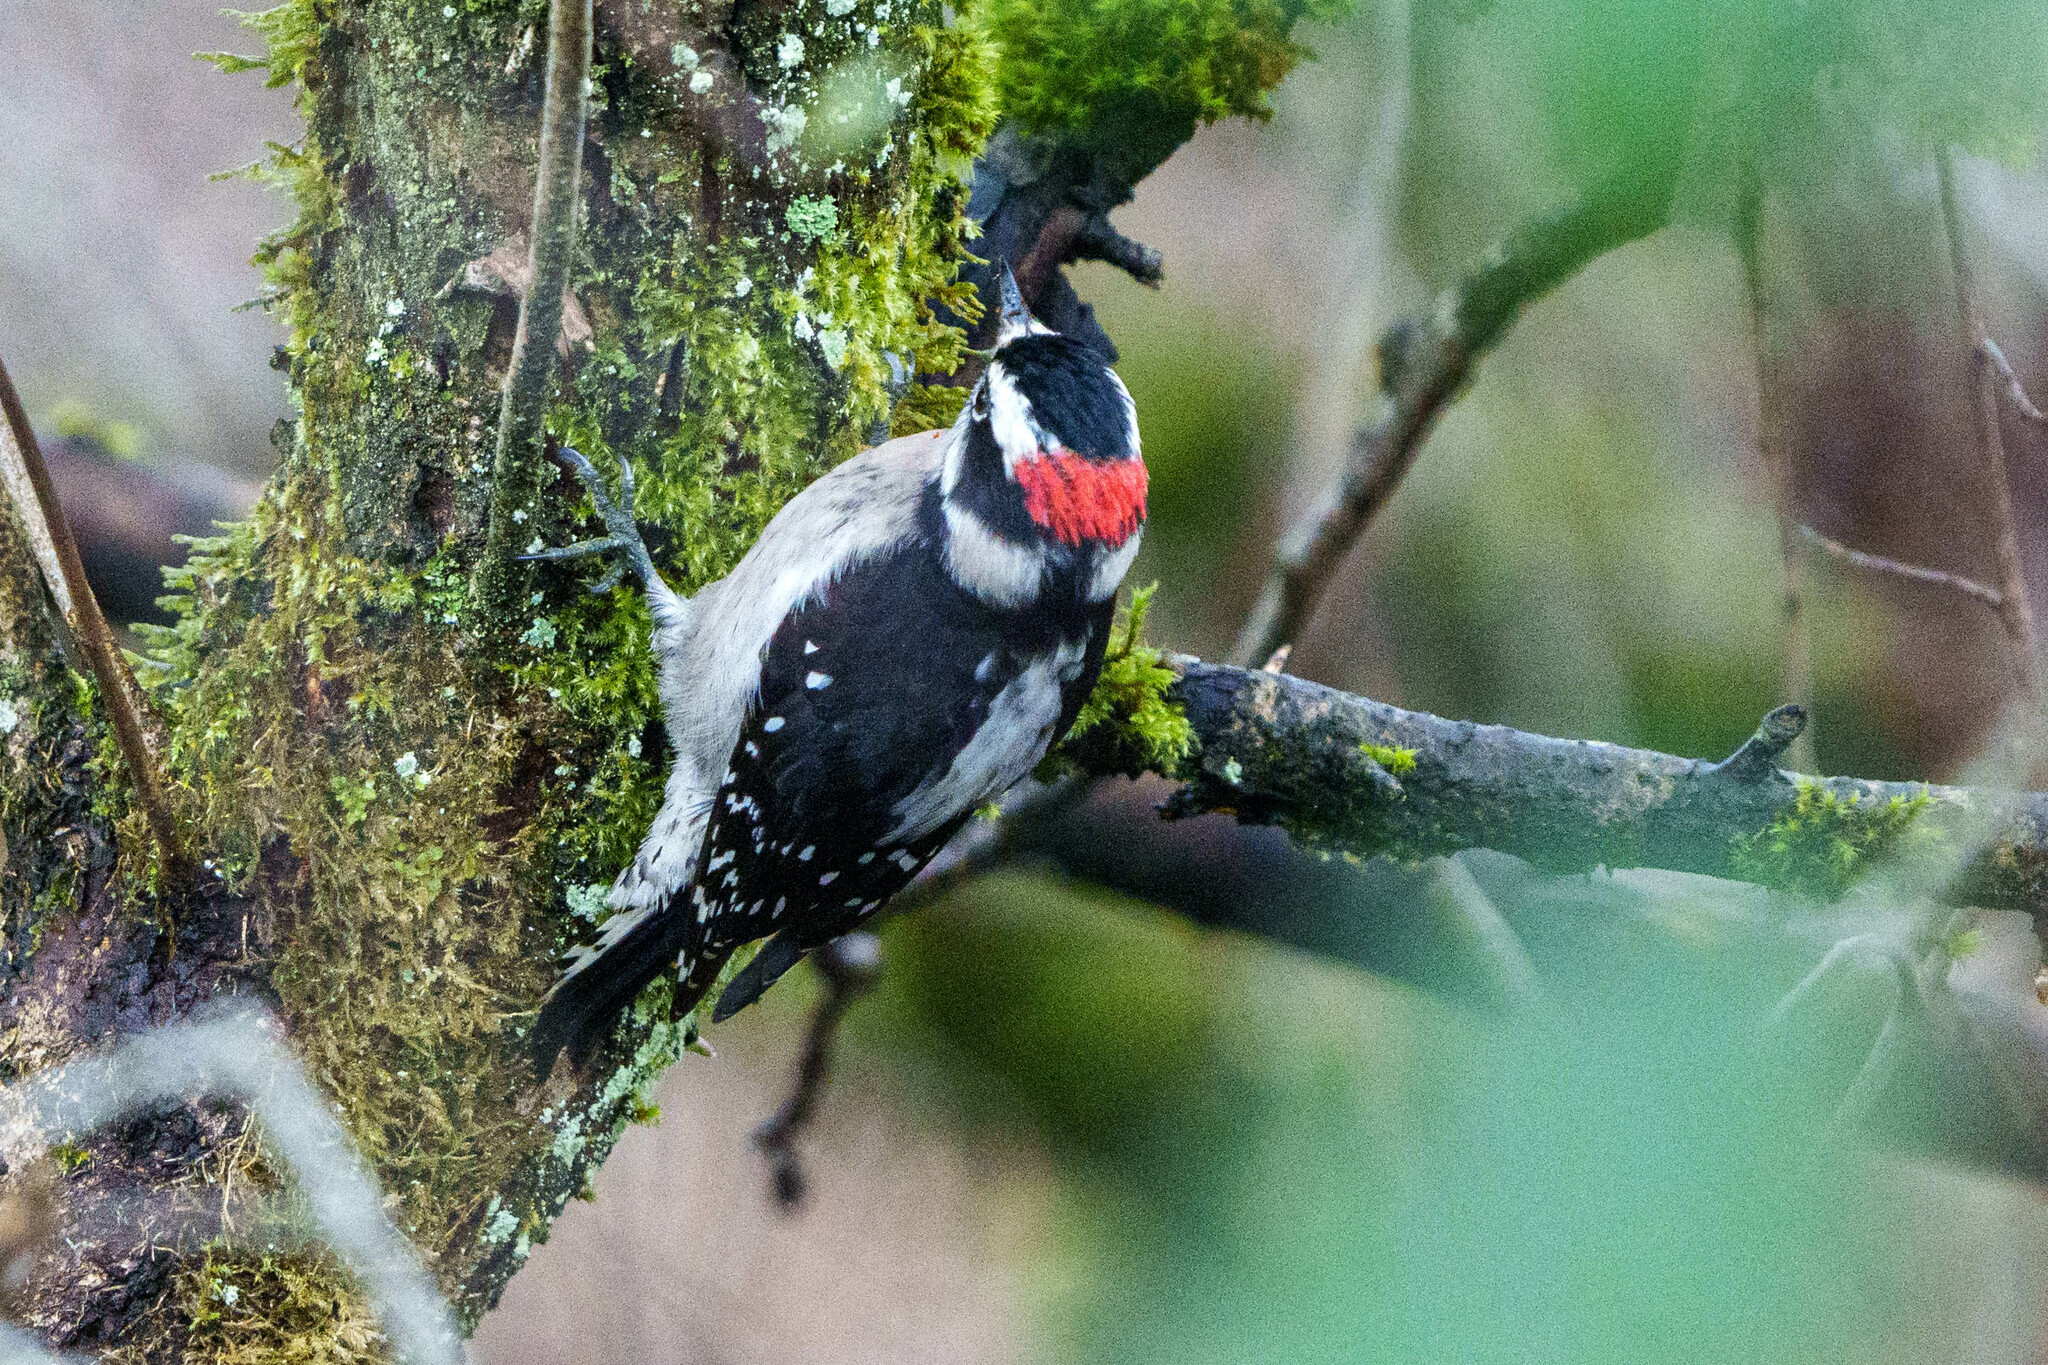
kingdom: Animalia
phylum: Chordata
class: Aves
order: Piciformes
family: Picidae
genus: Dryobates
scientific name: Dryobates pubescens
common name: Downy woodpecker
